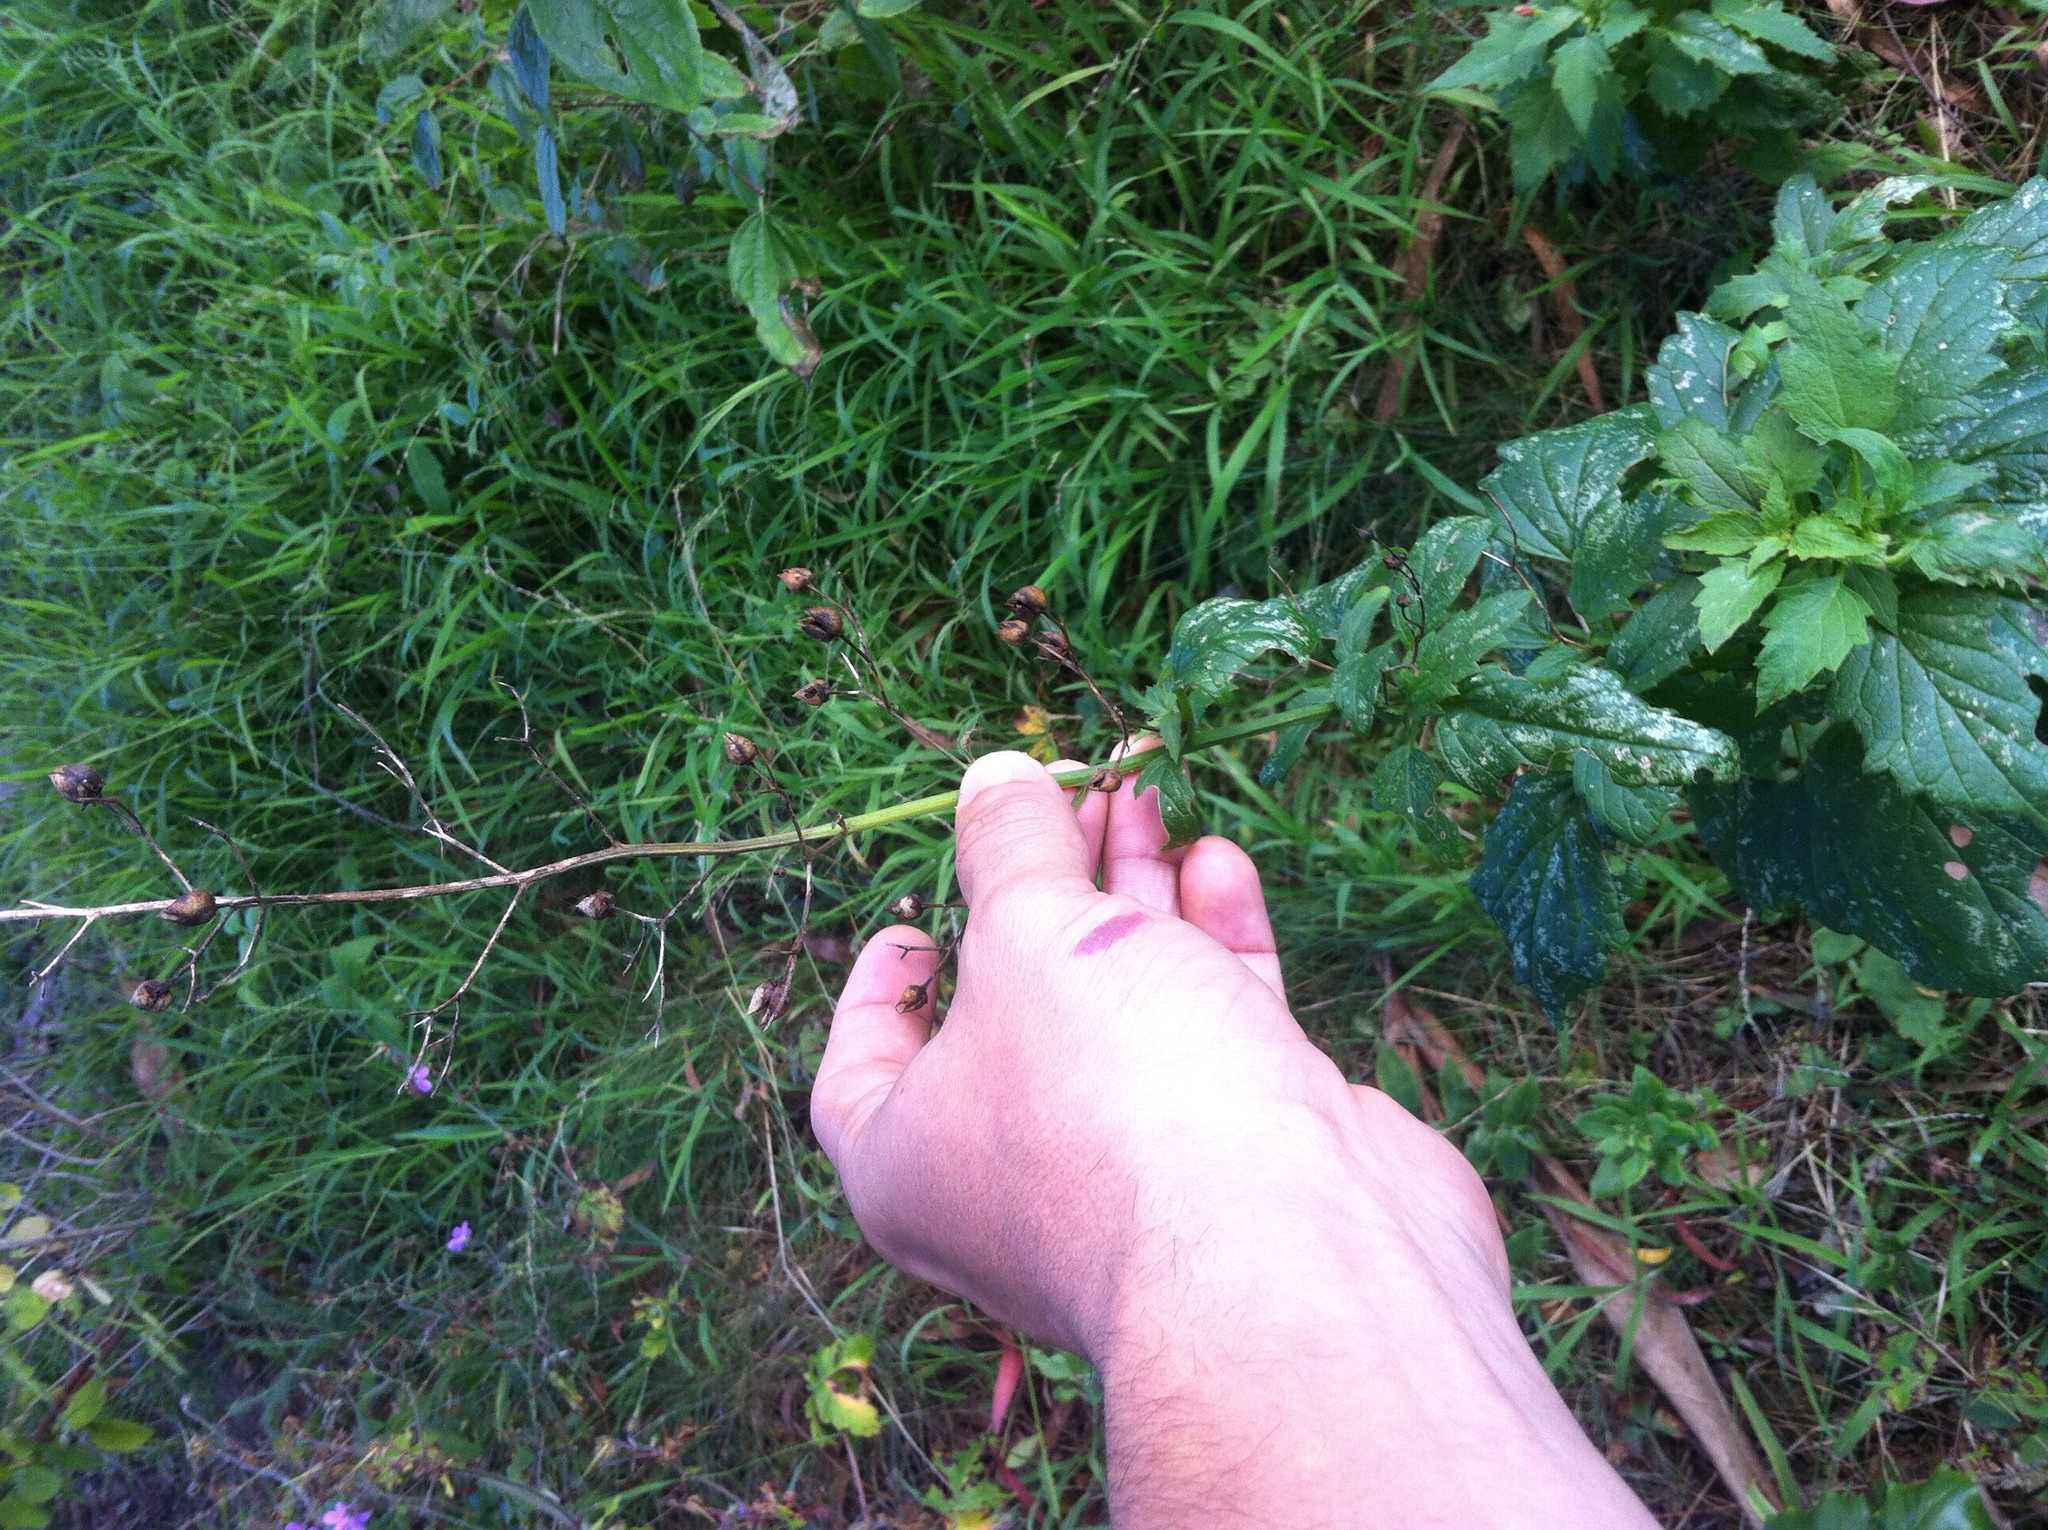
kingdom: Plantae
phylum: Tracheophyta
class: Magnoliopsida
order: Lamiales
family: Scrophulariaceae
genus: Scrophularia
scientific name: Scrophularia californica
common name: California figwort
